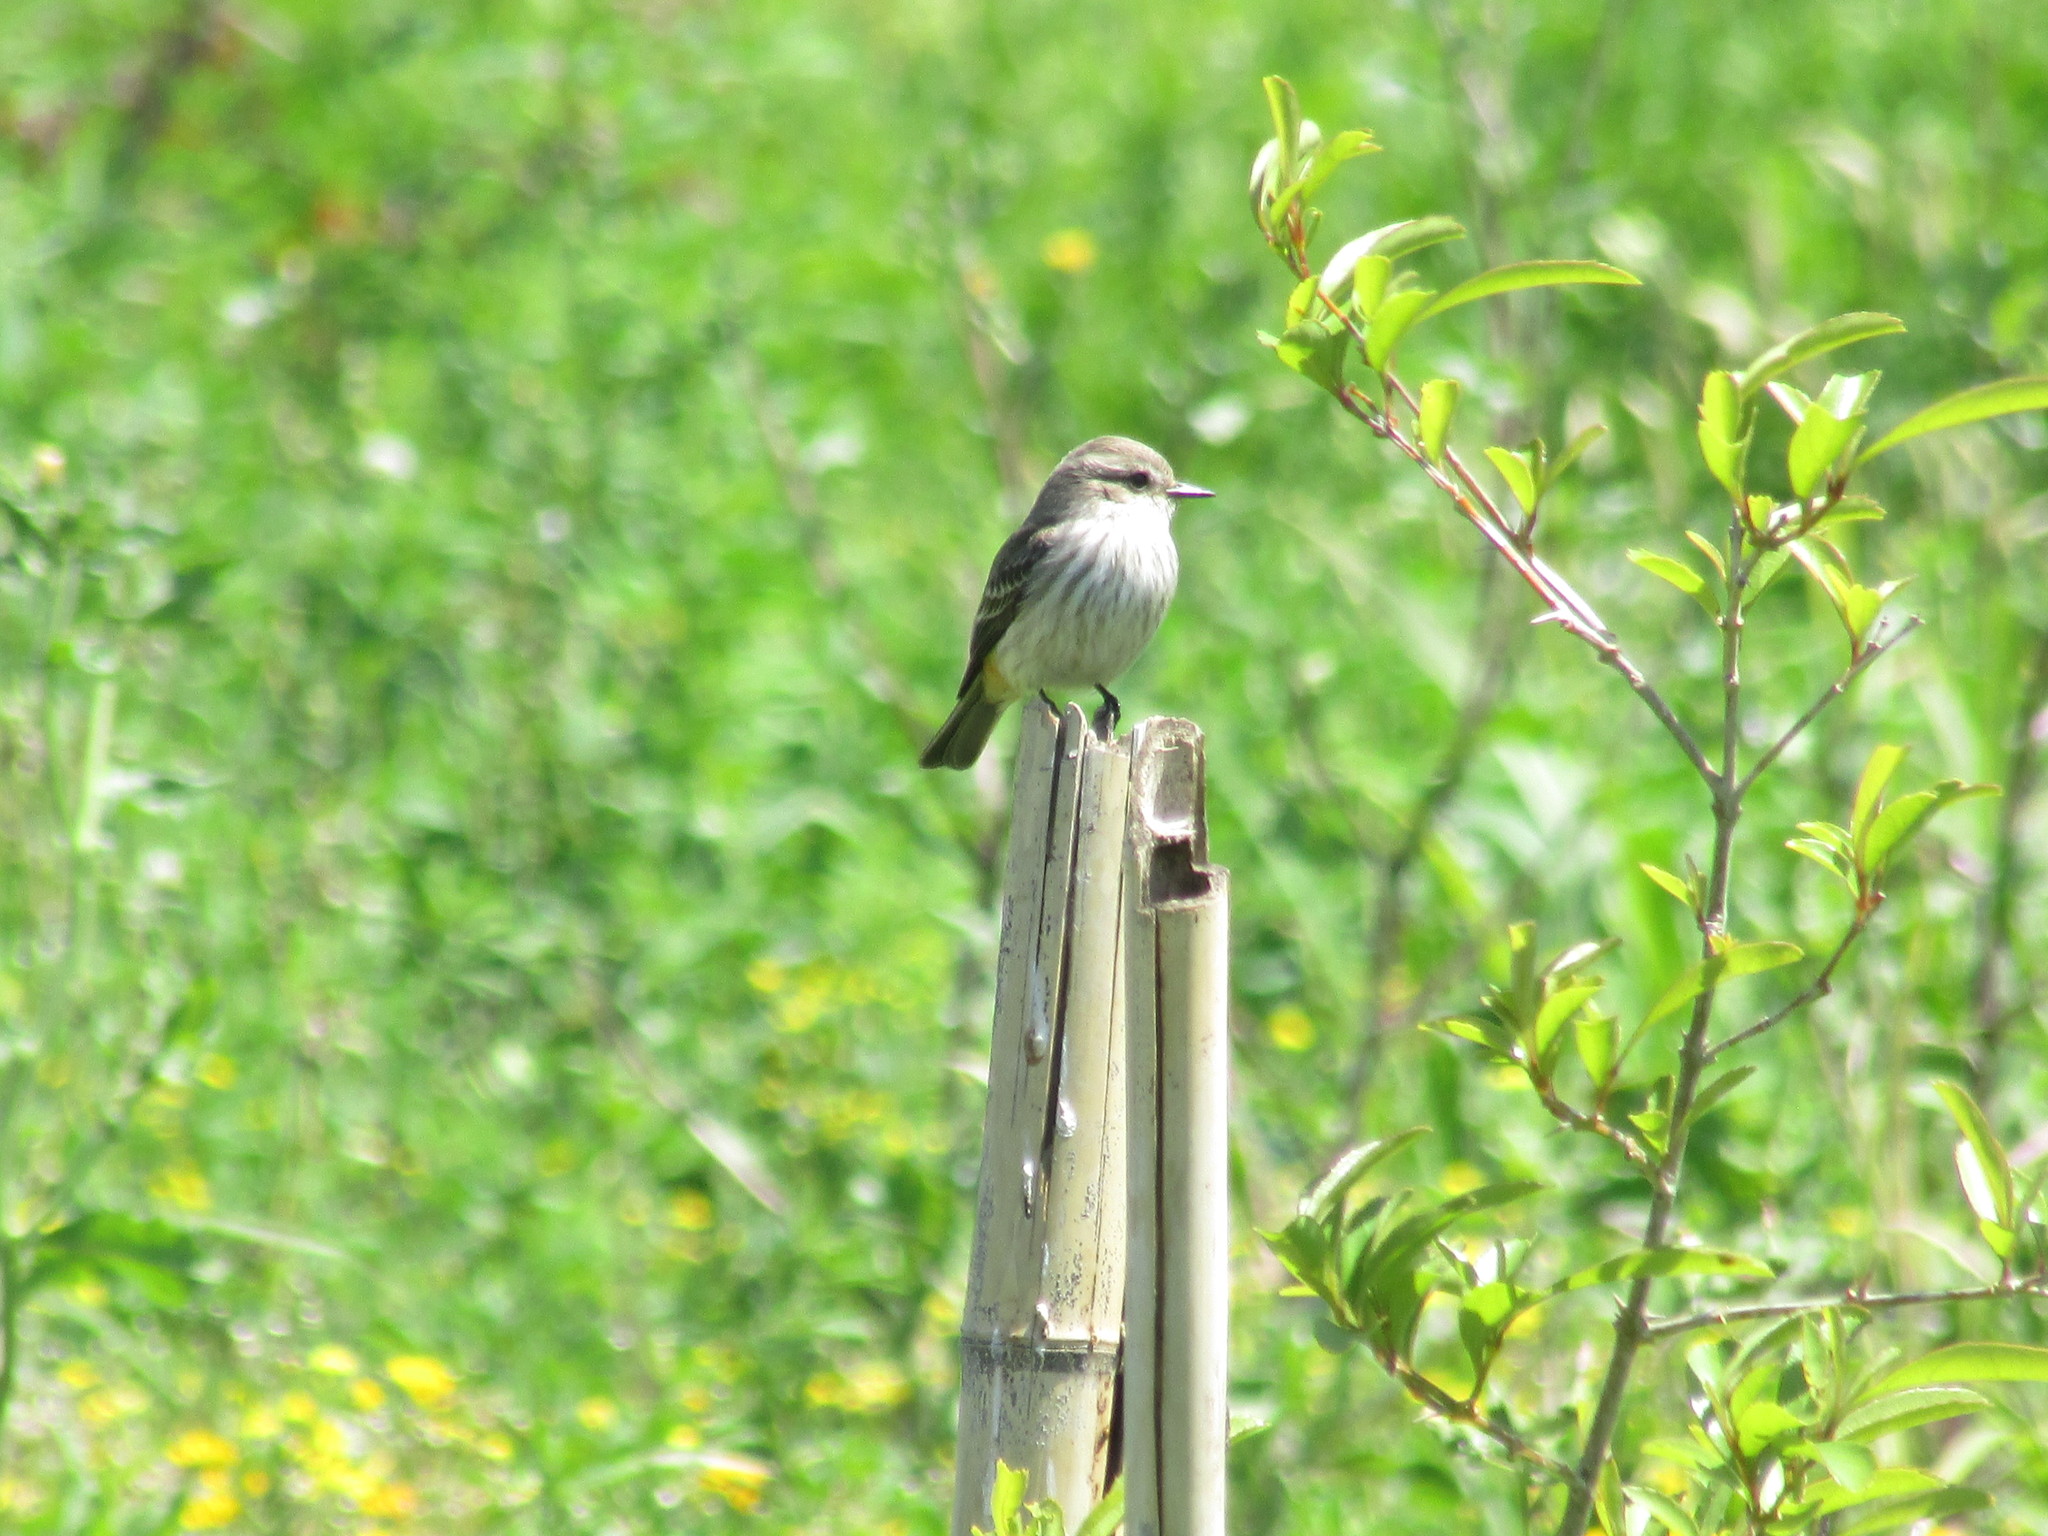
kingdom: Animalia
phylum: Chordata
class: Aves
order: Passeriformes
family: Tyrannidae
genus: Pyrocephalus
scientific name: Pyrocephalus rubinus
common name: Vermilion flycatcher
